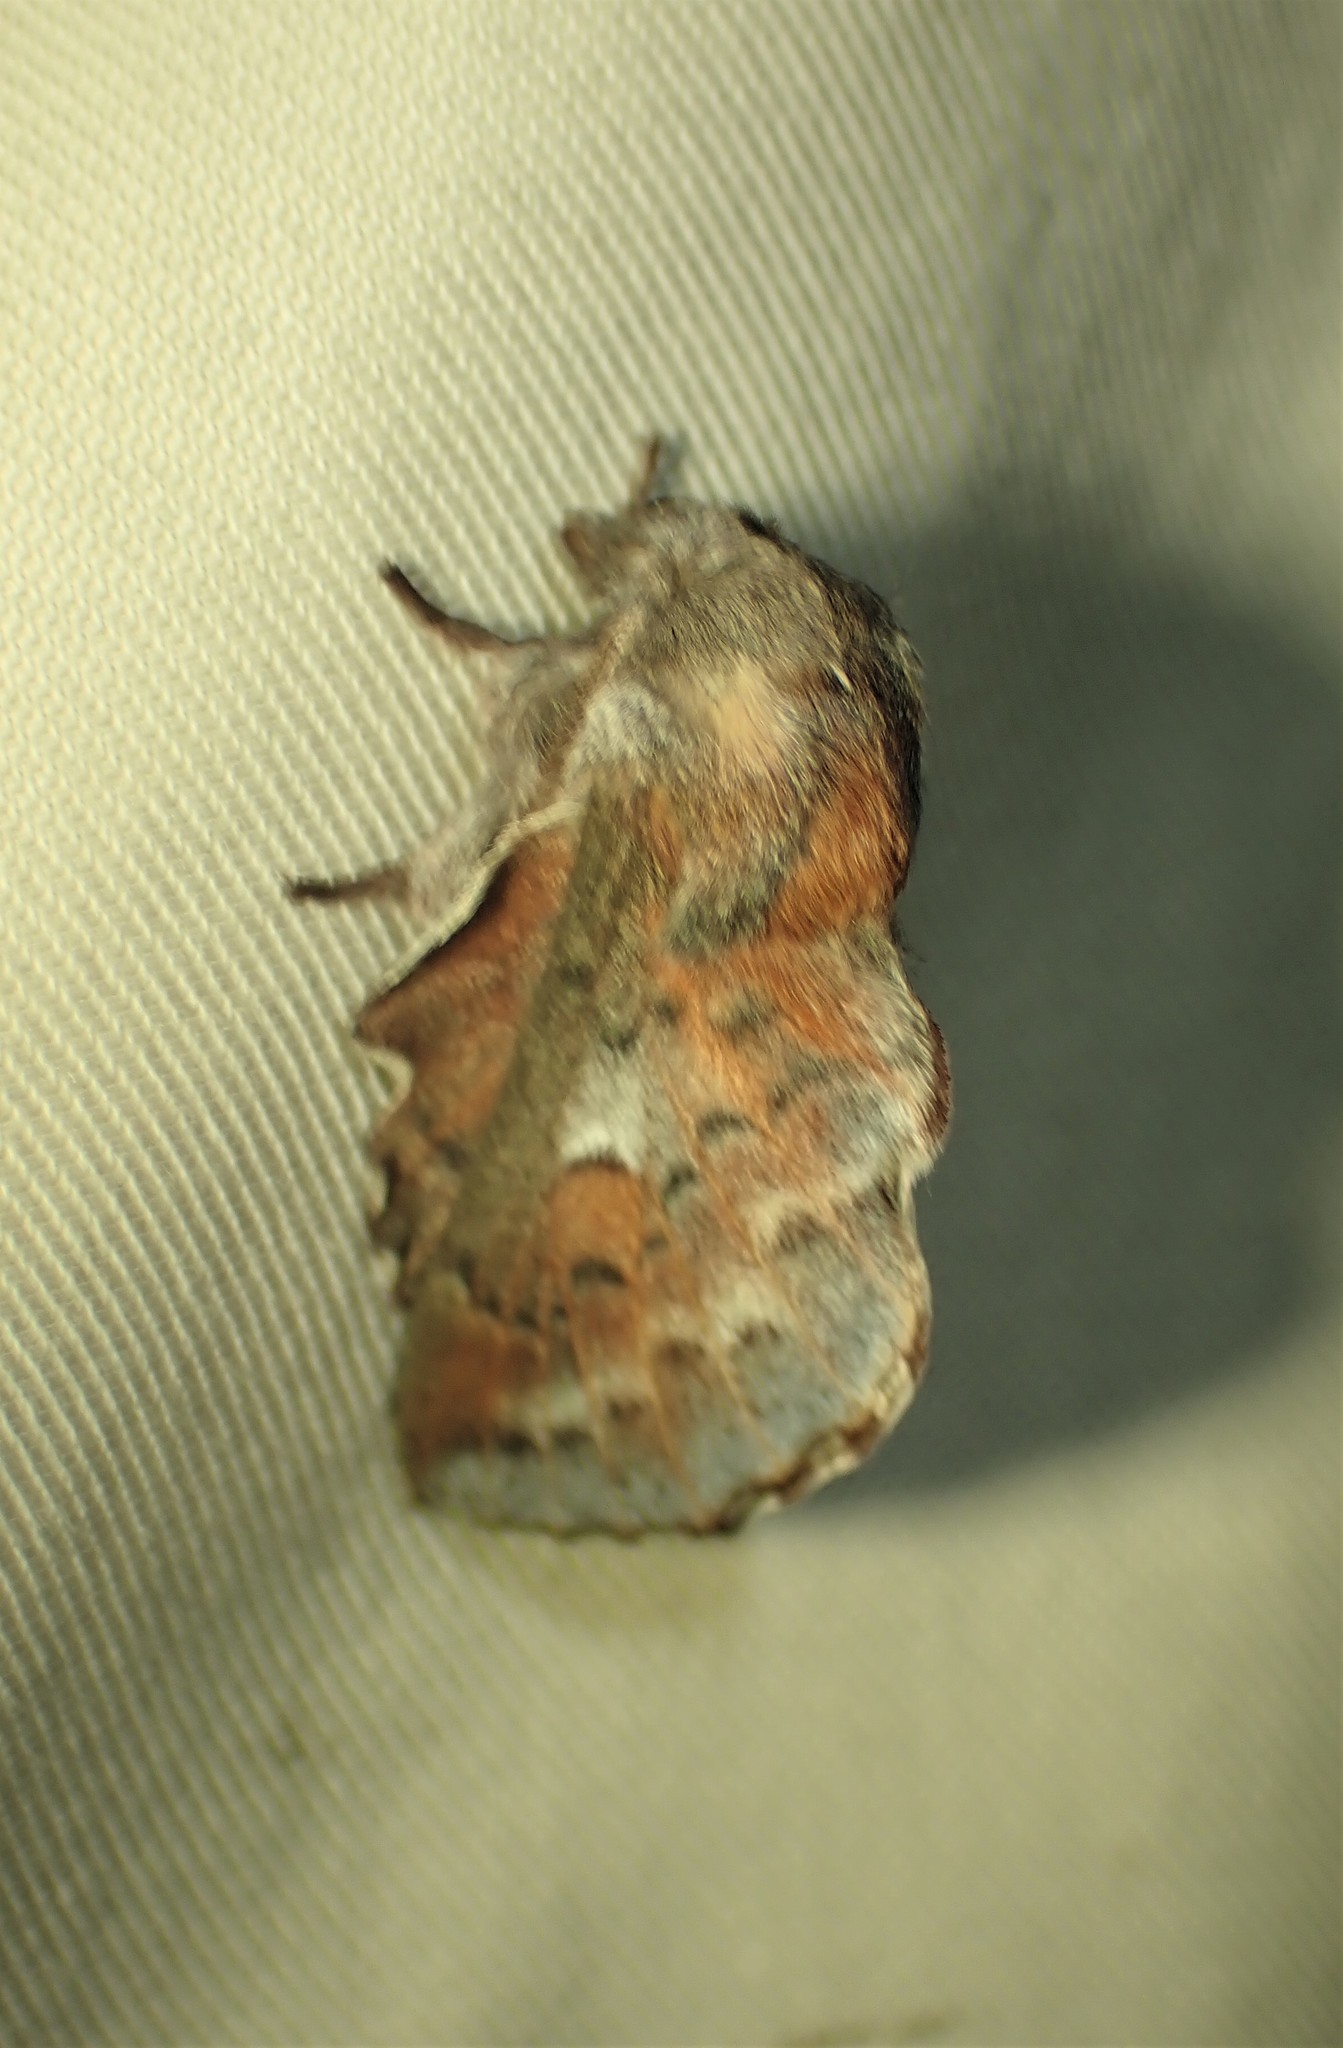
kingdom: Animalia
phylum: Arthropoda
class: Insecta
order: Lepidoptera
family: Lasiocampidae
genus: Phyllodesma
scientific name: Phyllodesma americana
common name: American lappet moth
